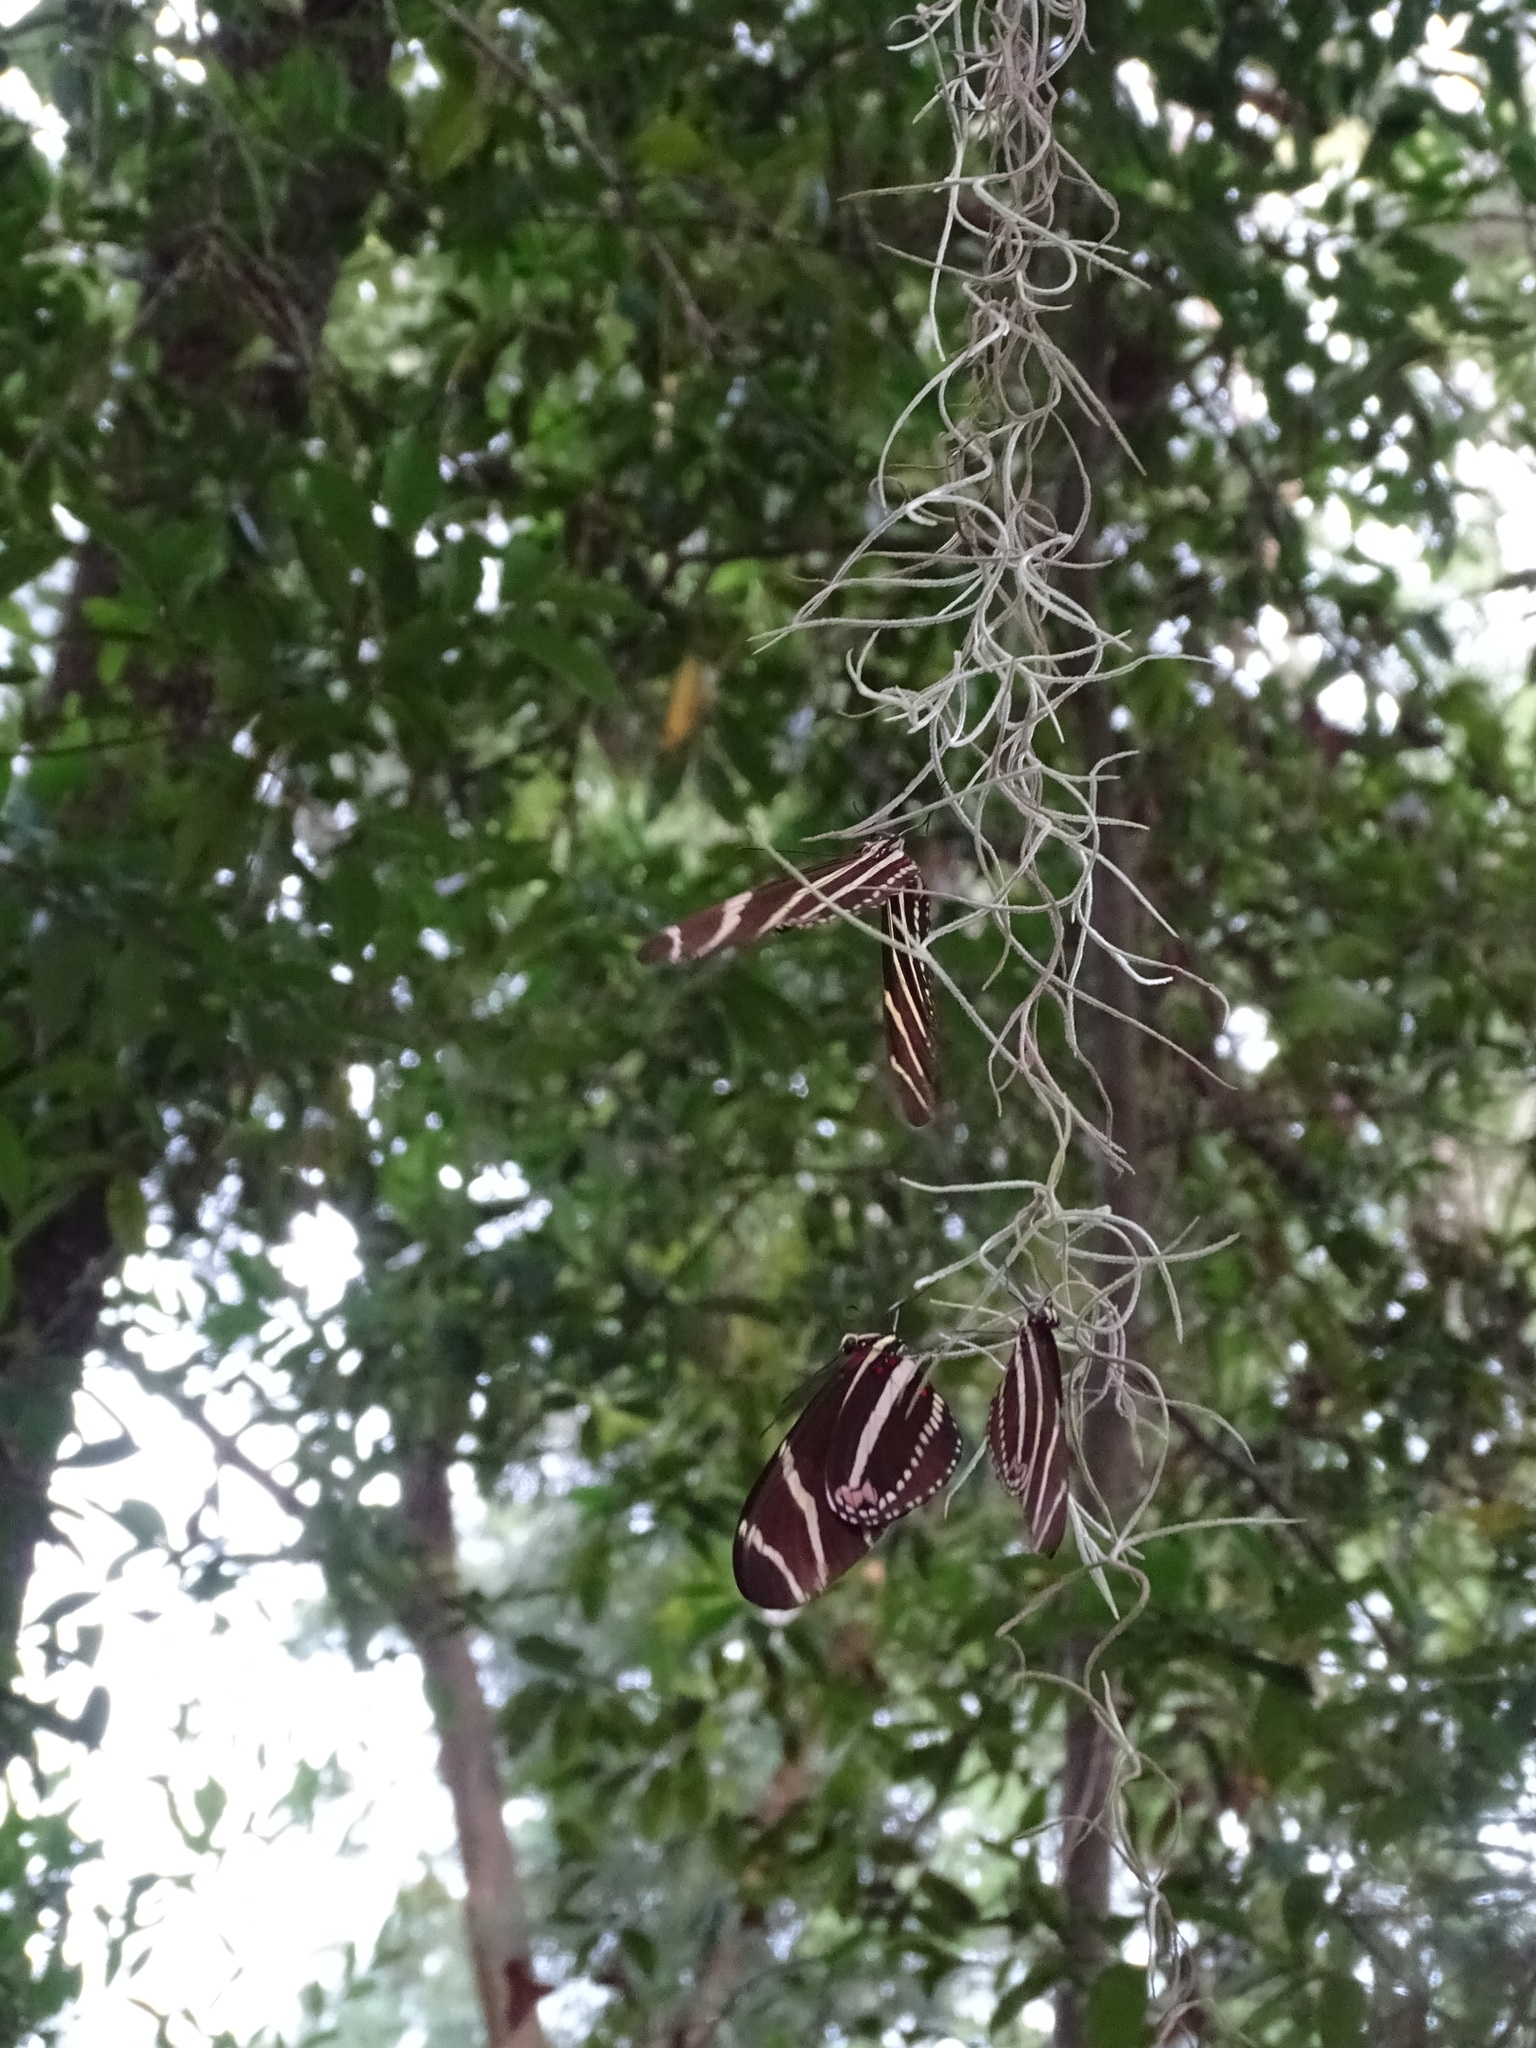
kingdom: Animalia
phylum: Arthropoda
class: Insecta
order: Lepidoptera
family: Nymphalidae
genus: Heliconius
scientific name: Heliconius charithonia
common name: Zebra long wing
